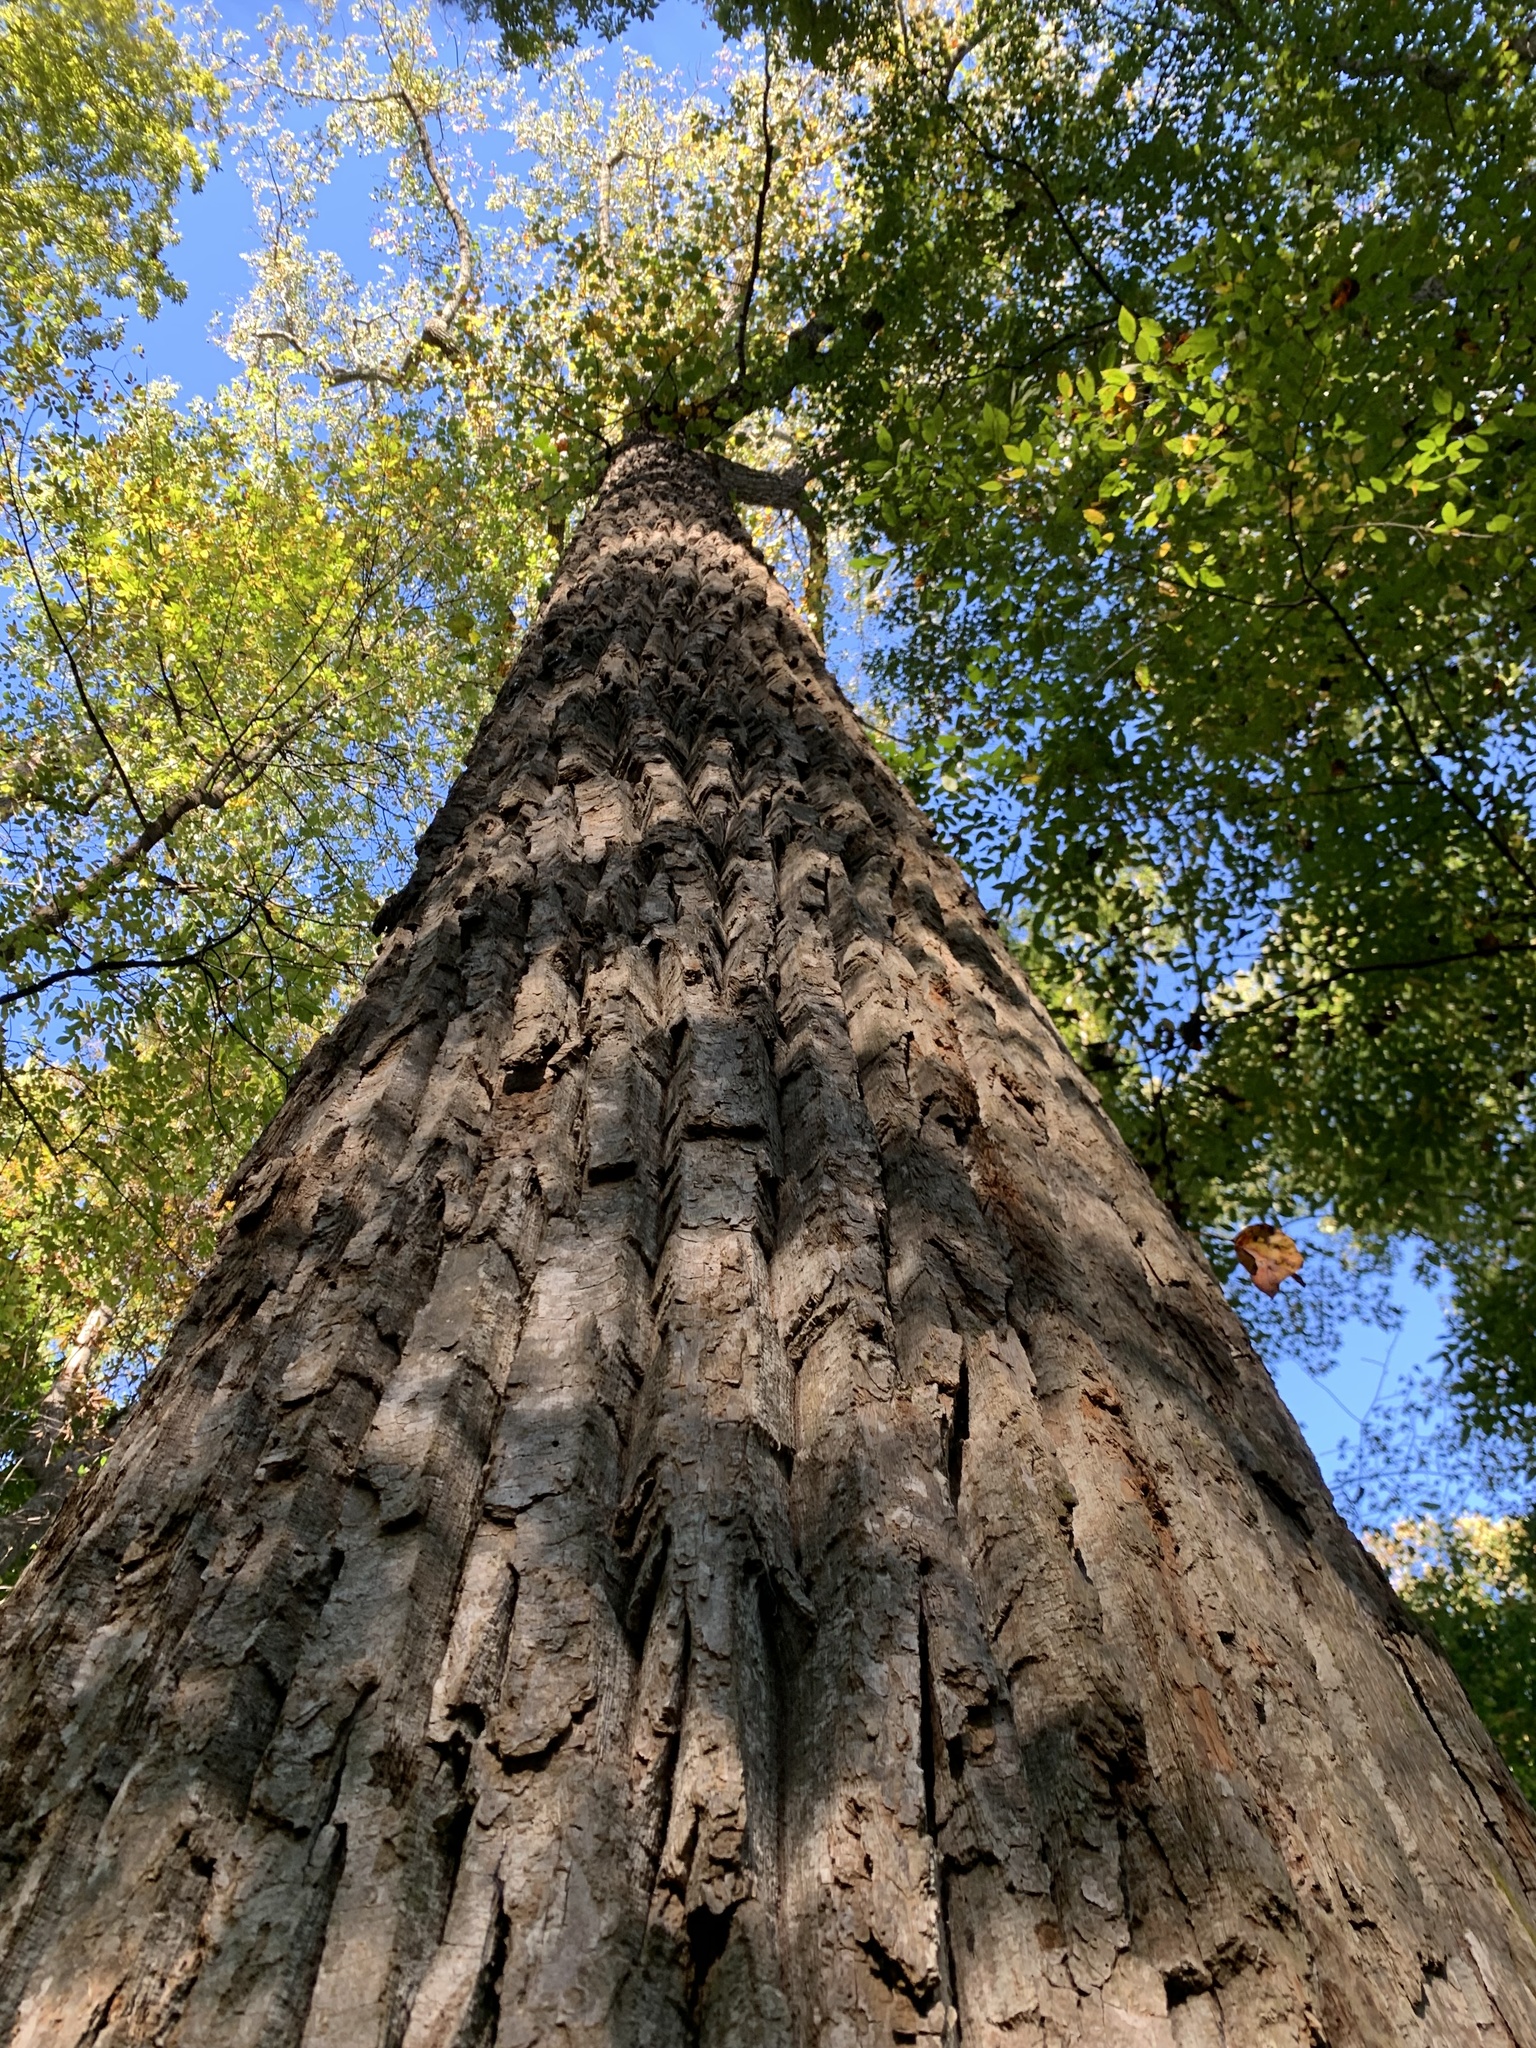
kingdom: Plantae
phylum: Tracheophyta
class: Magnoliopsida
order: Magnoliales
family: Magnoliaceae
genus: Liriodendron
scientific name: Liriodendron tulipifera
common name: Tulip tree
